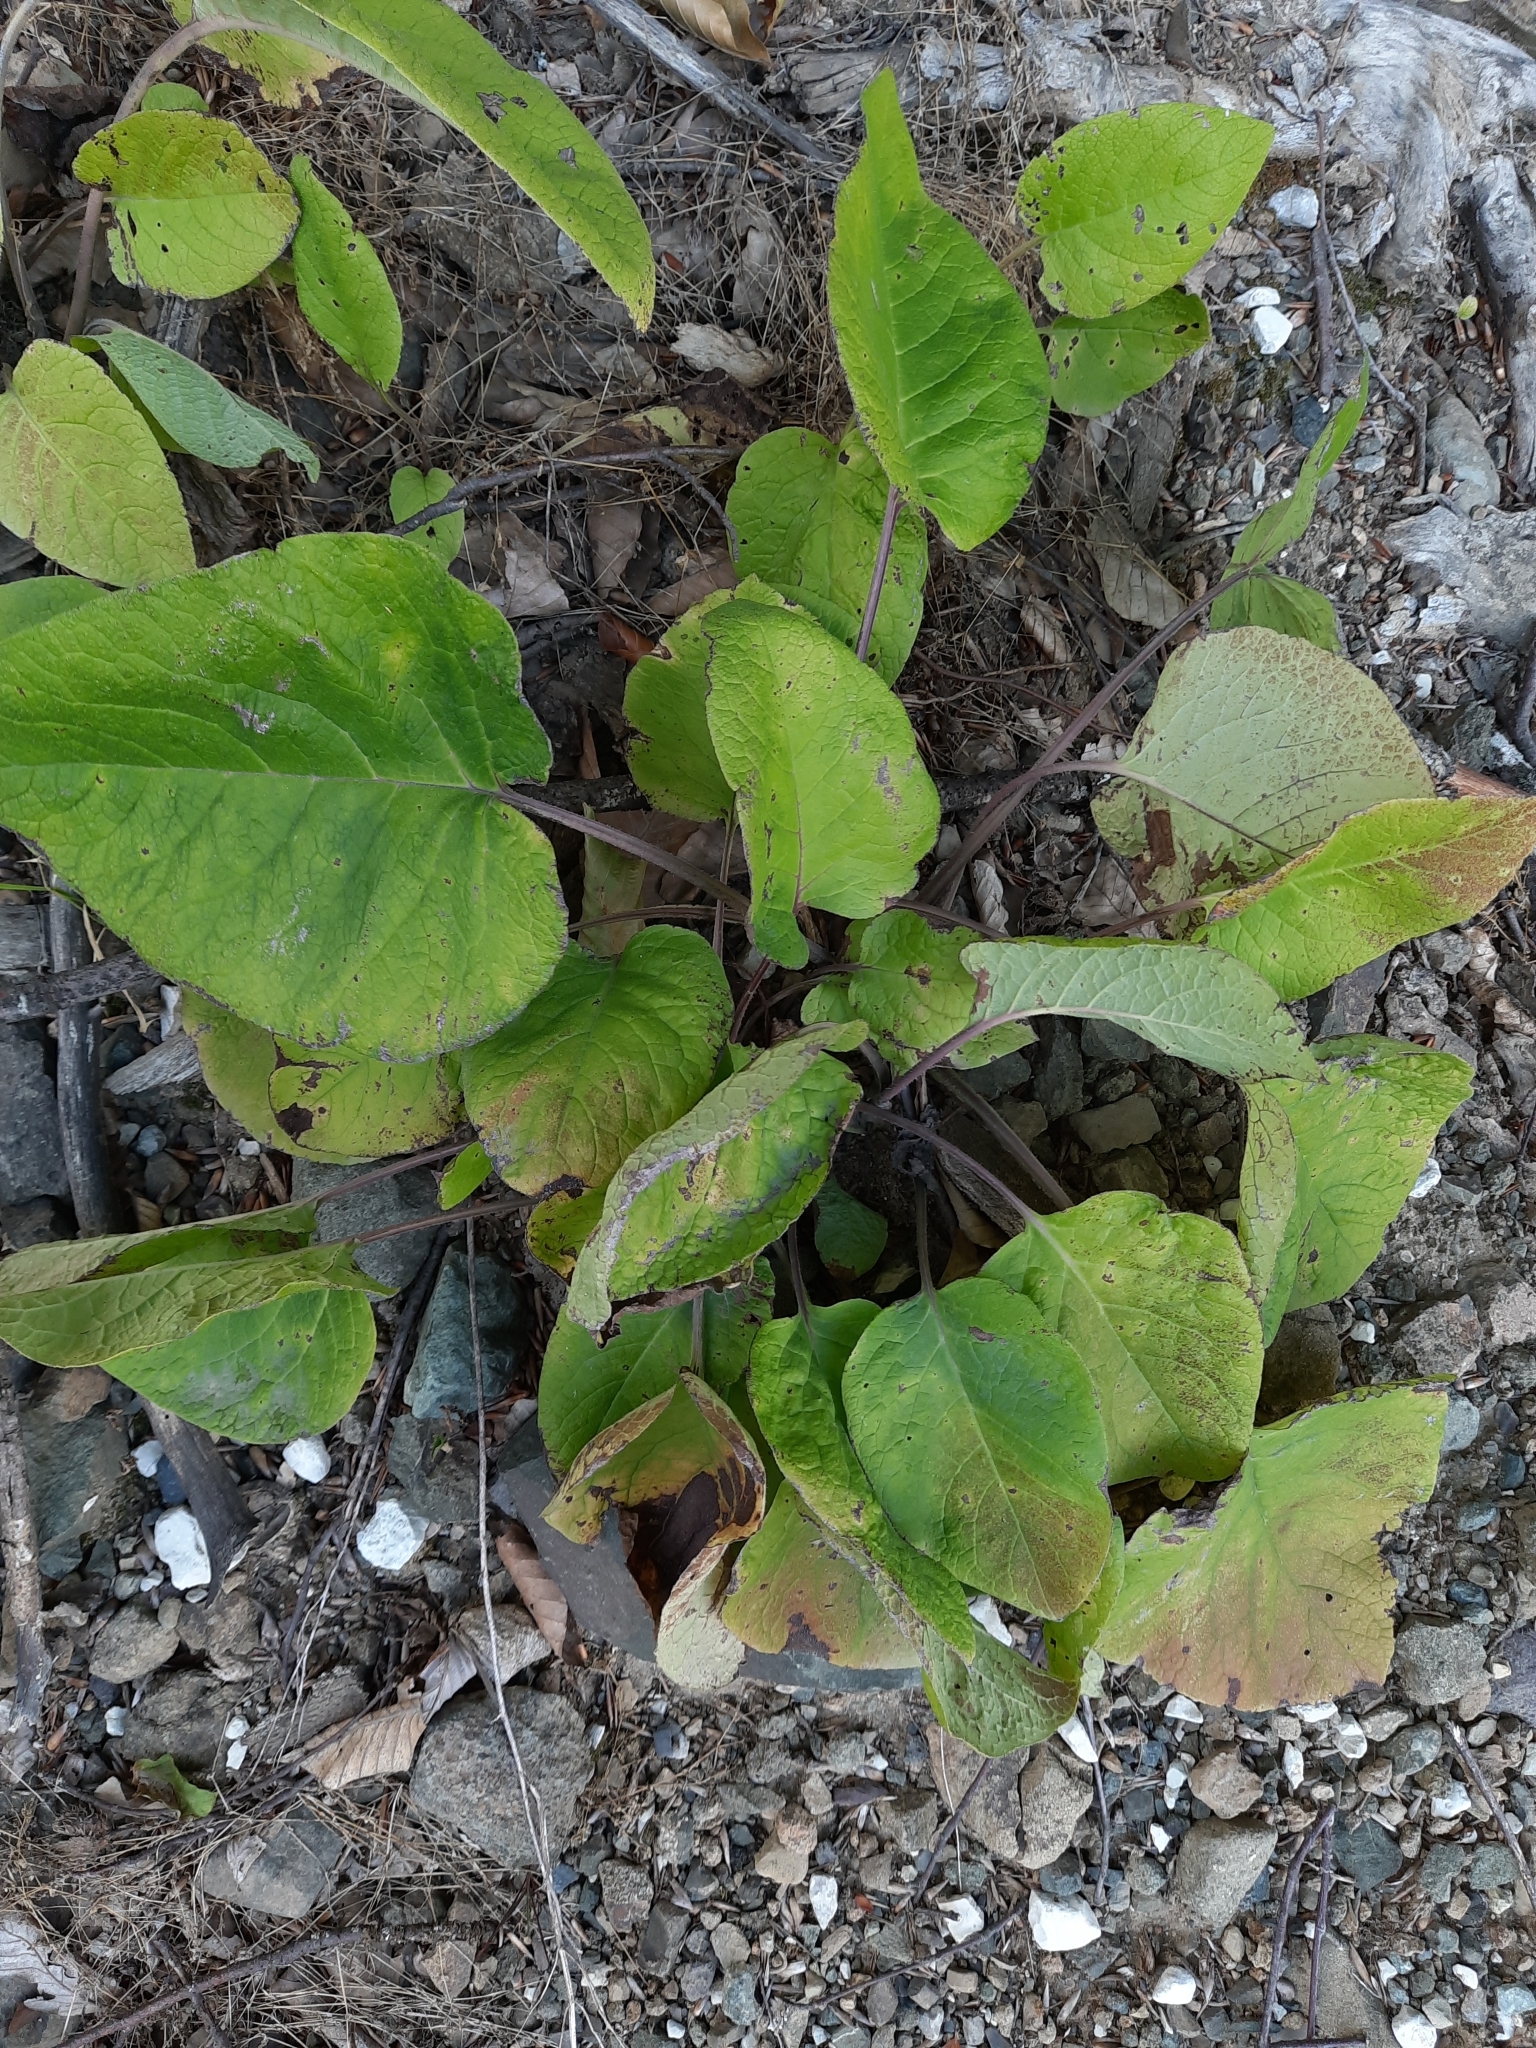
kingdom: Plantae
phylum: Tracheophyta
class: Magnoliopsida
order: Boraginales
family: Boraginaceae
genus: Trachystemon
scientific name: Trachystemon orientale
